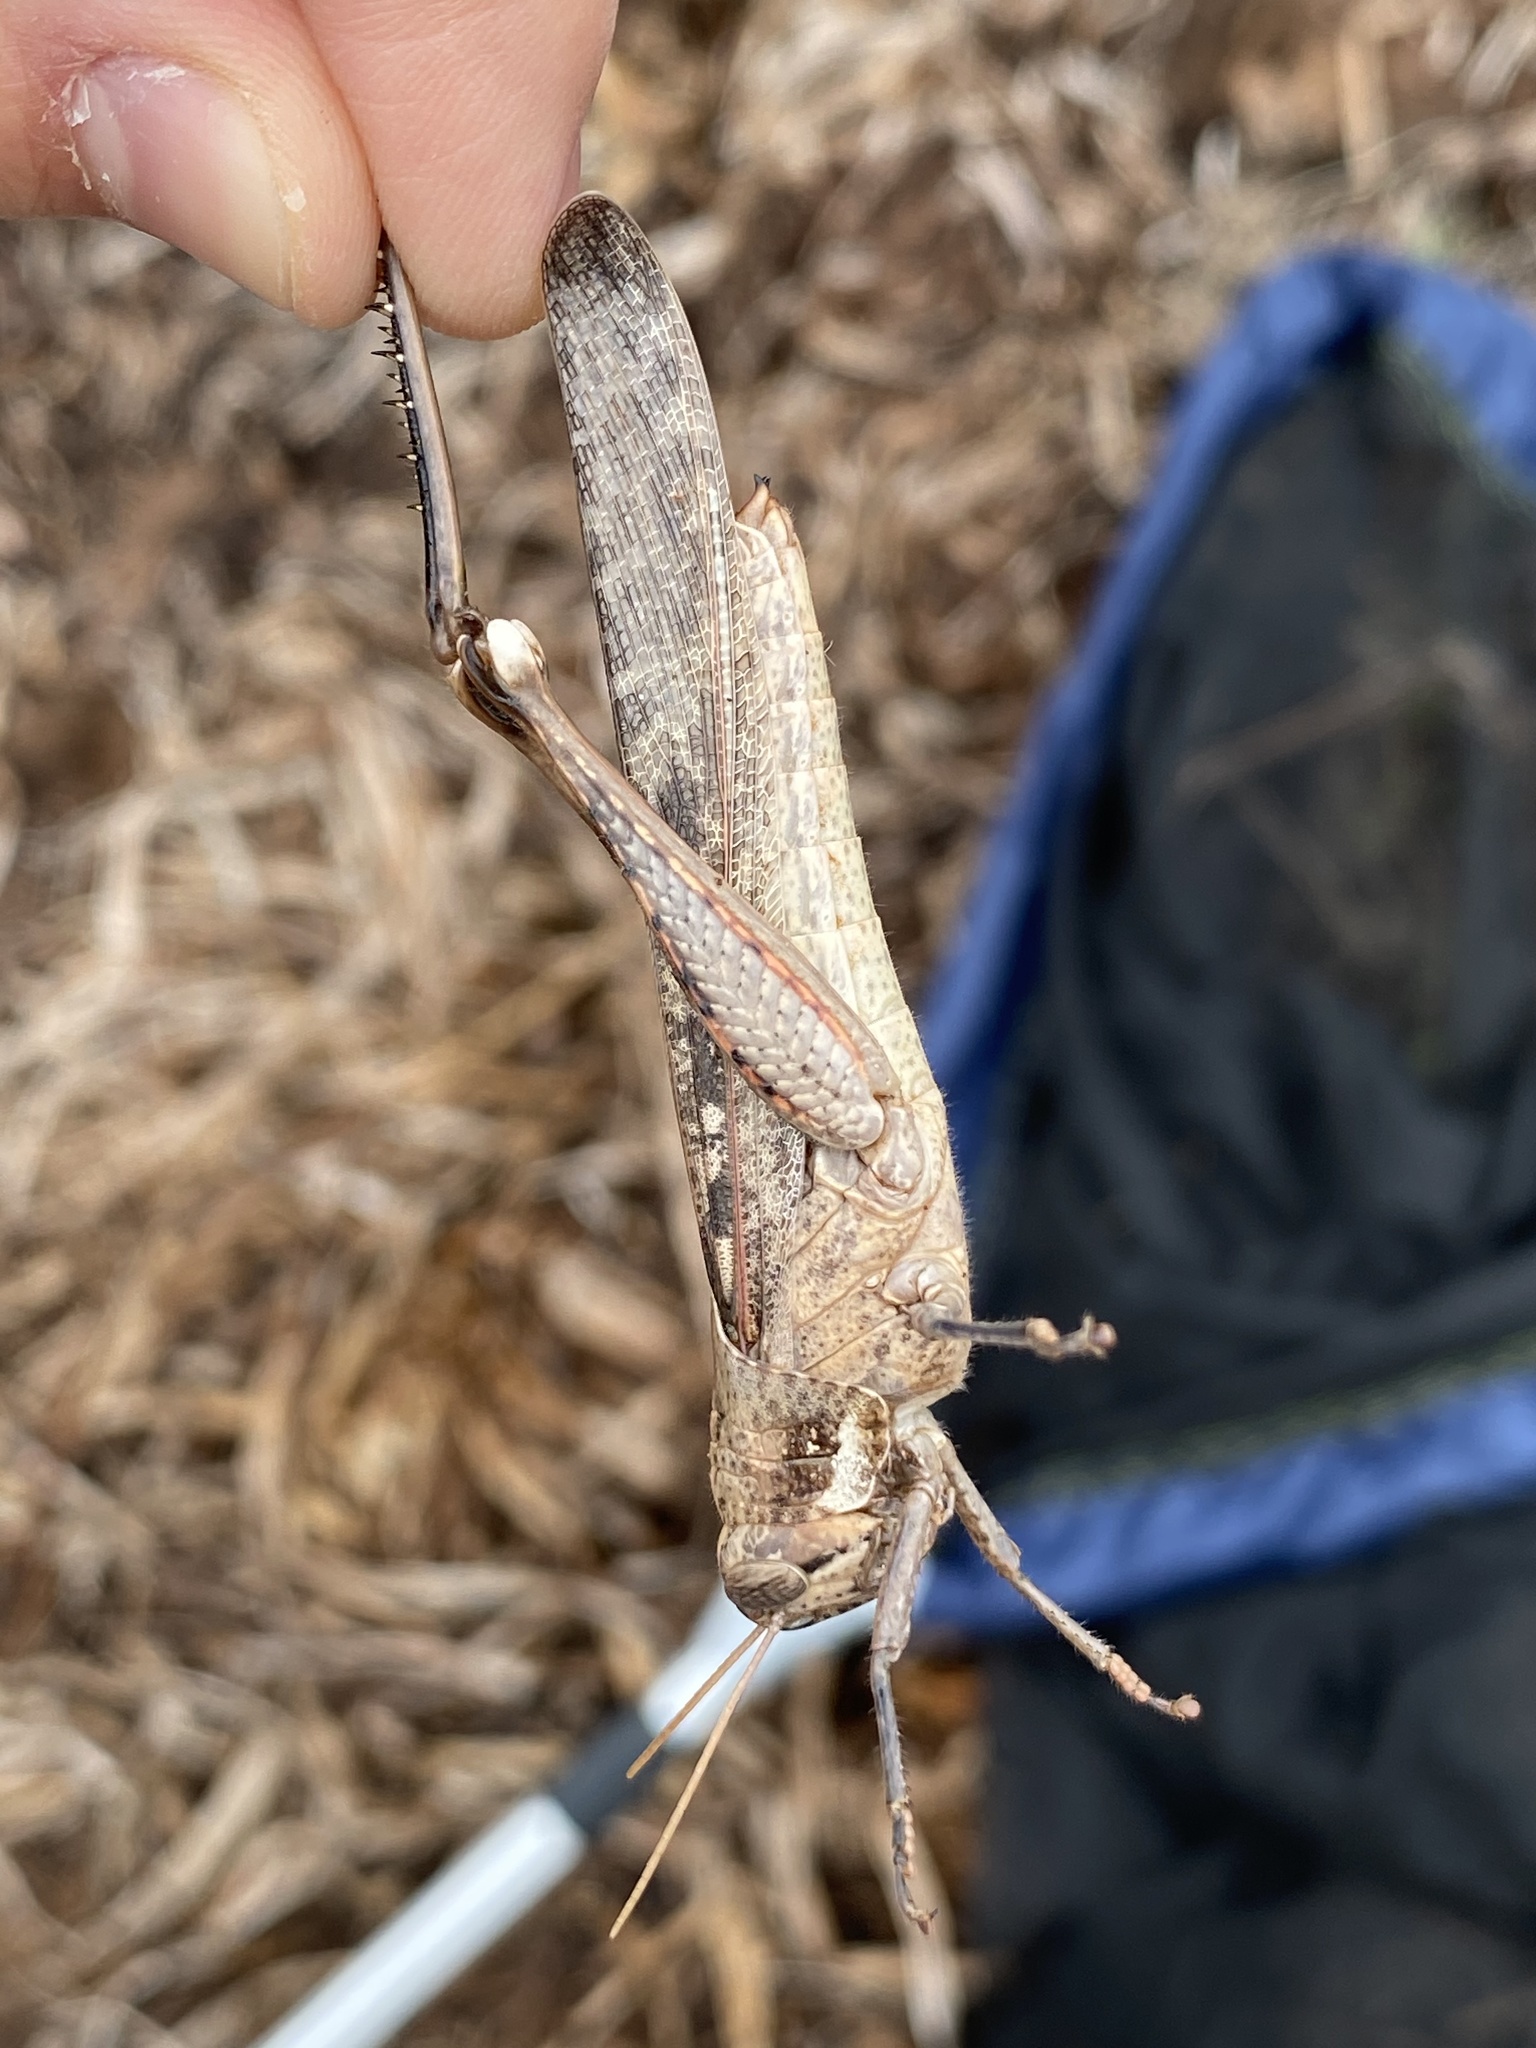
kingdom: Animalia
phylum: Arthropoda
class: Insecta
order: Orthoptera
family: Acrididae
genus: Schistocerca
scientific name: Schistocerca nitens
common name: Vagrant grasshopper
